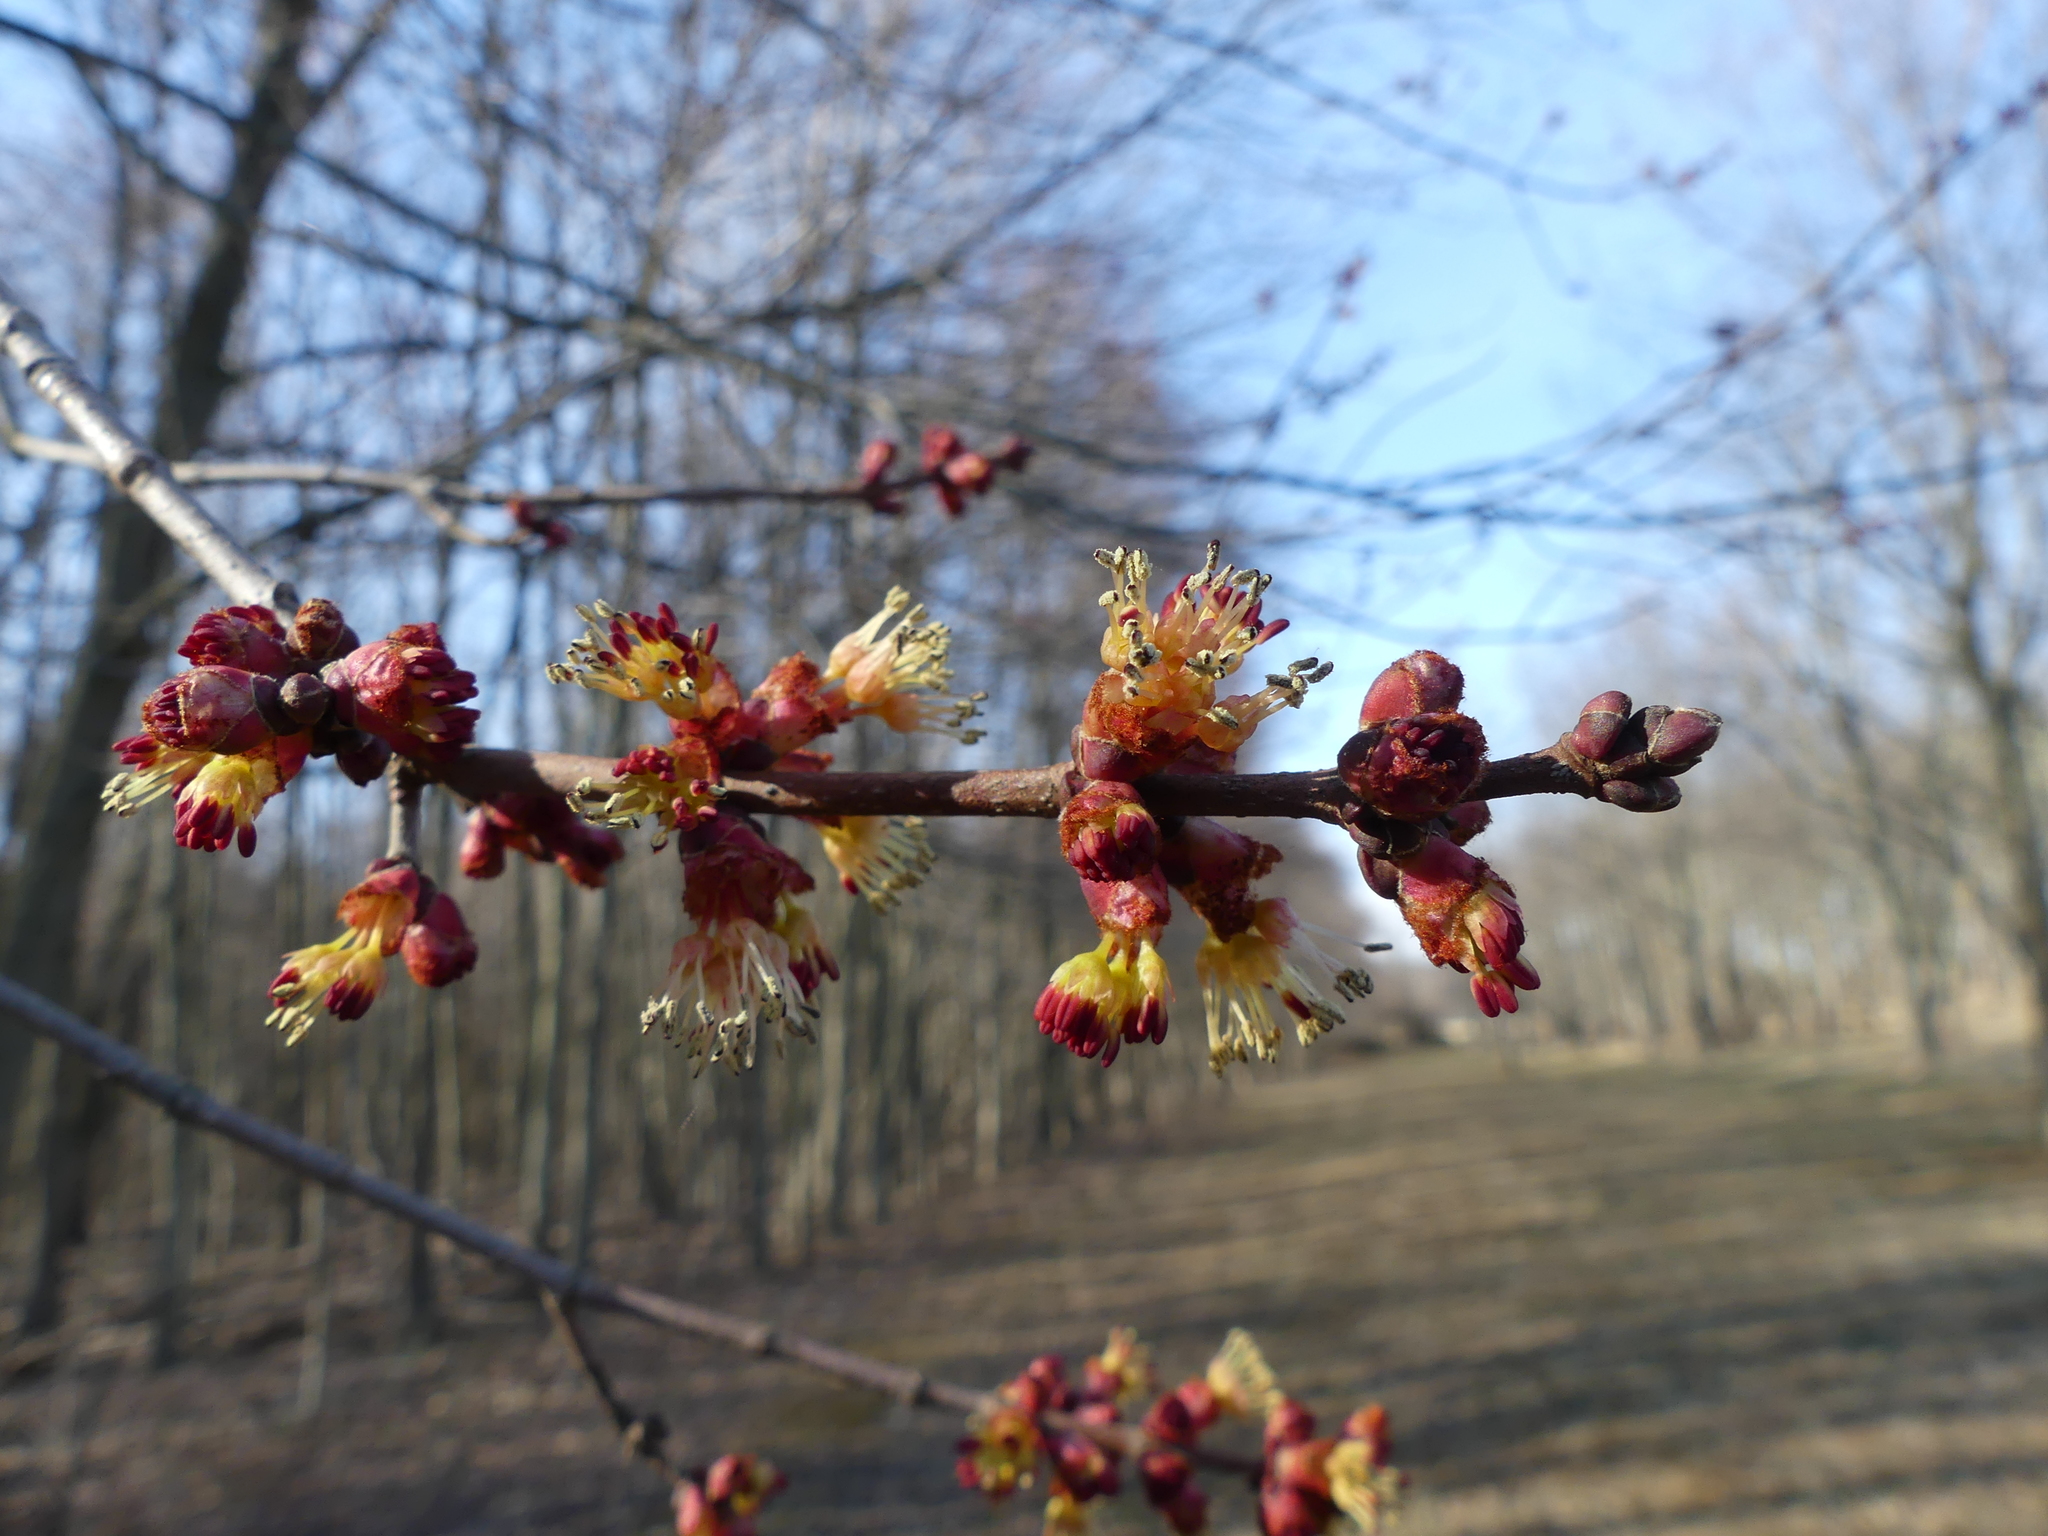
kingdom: Plantae
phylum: Tracheophyta
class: Magnoliopsida
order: Sapindales
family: Sapindaceae
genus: Acer
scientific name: Acer rubrum
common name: Red maple
